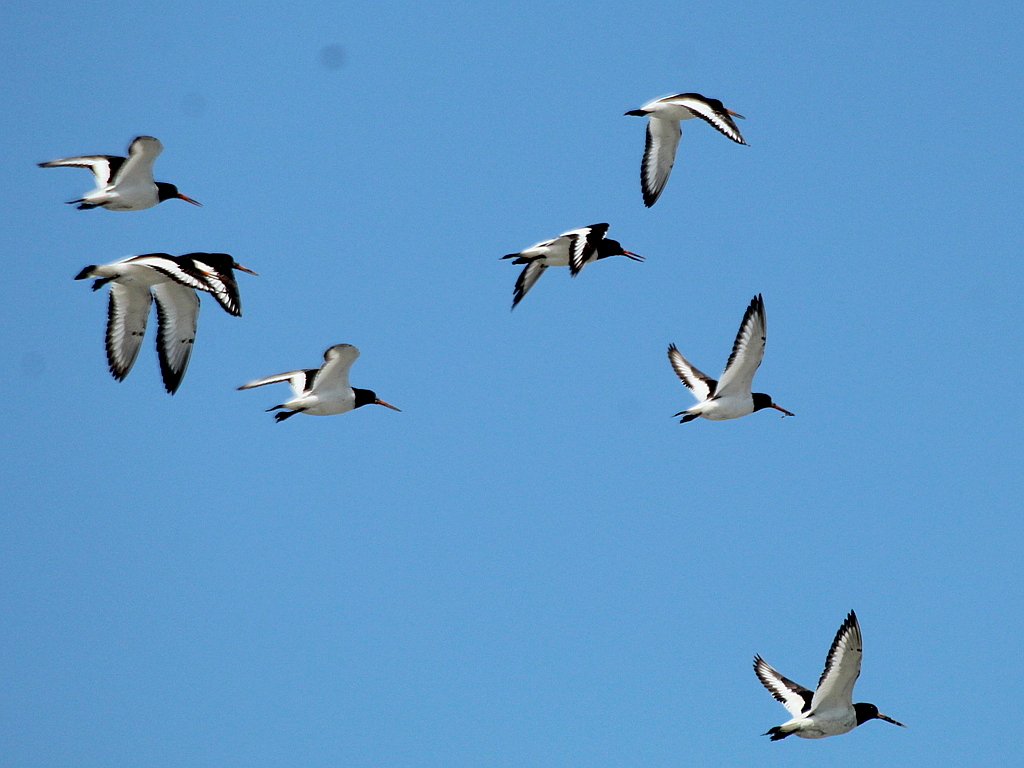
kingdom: Animalia
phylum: Chordata
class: Aves
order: Charadriiformes
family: Haematopodidae
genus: Haematopus
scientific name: Haematopus ostralegus
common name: Eurasian oystercatcher
